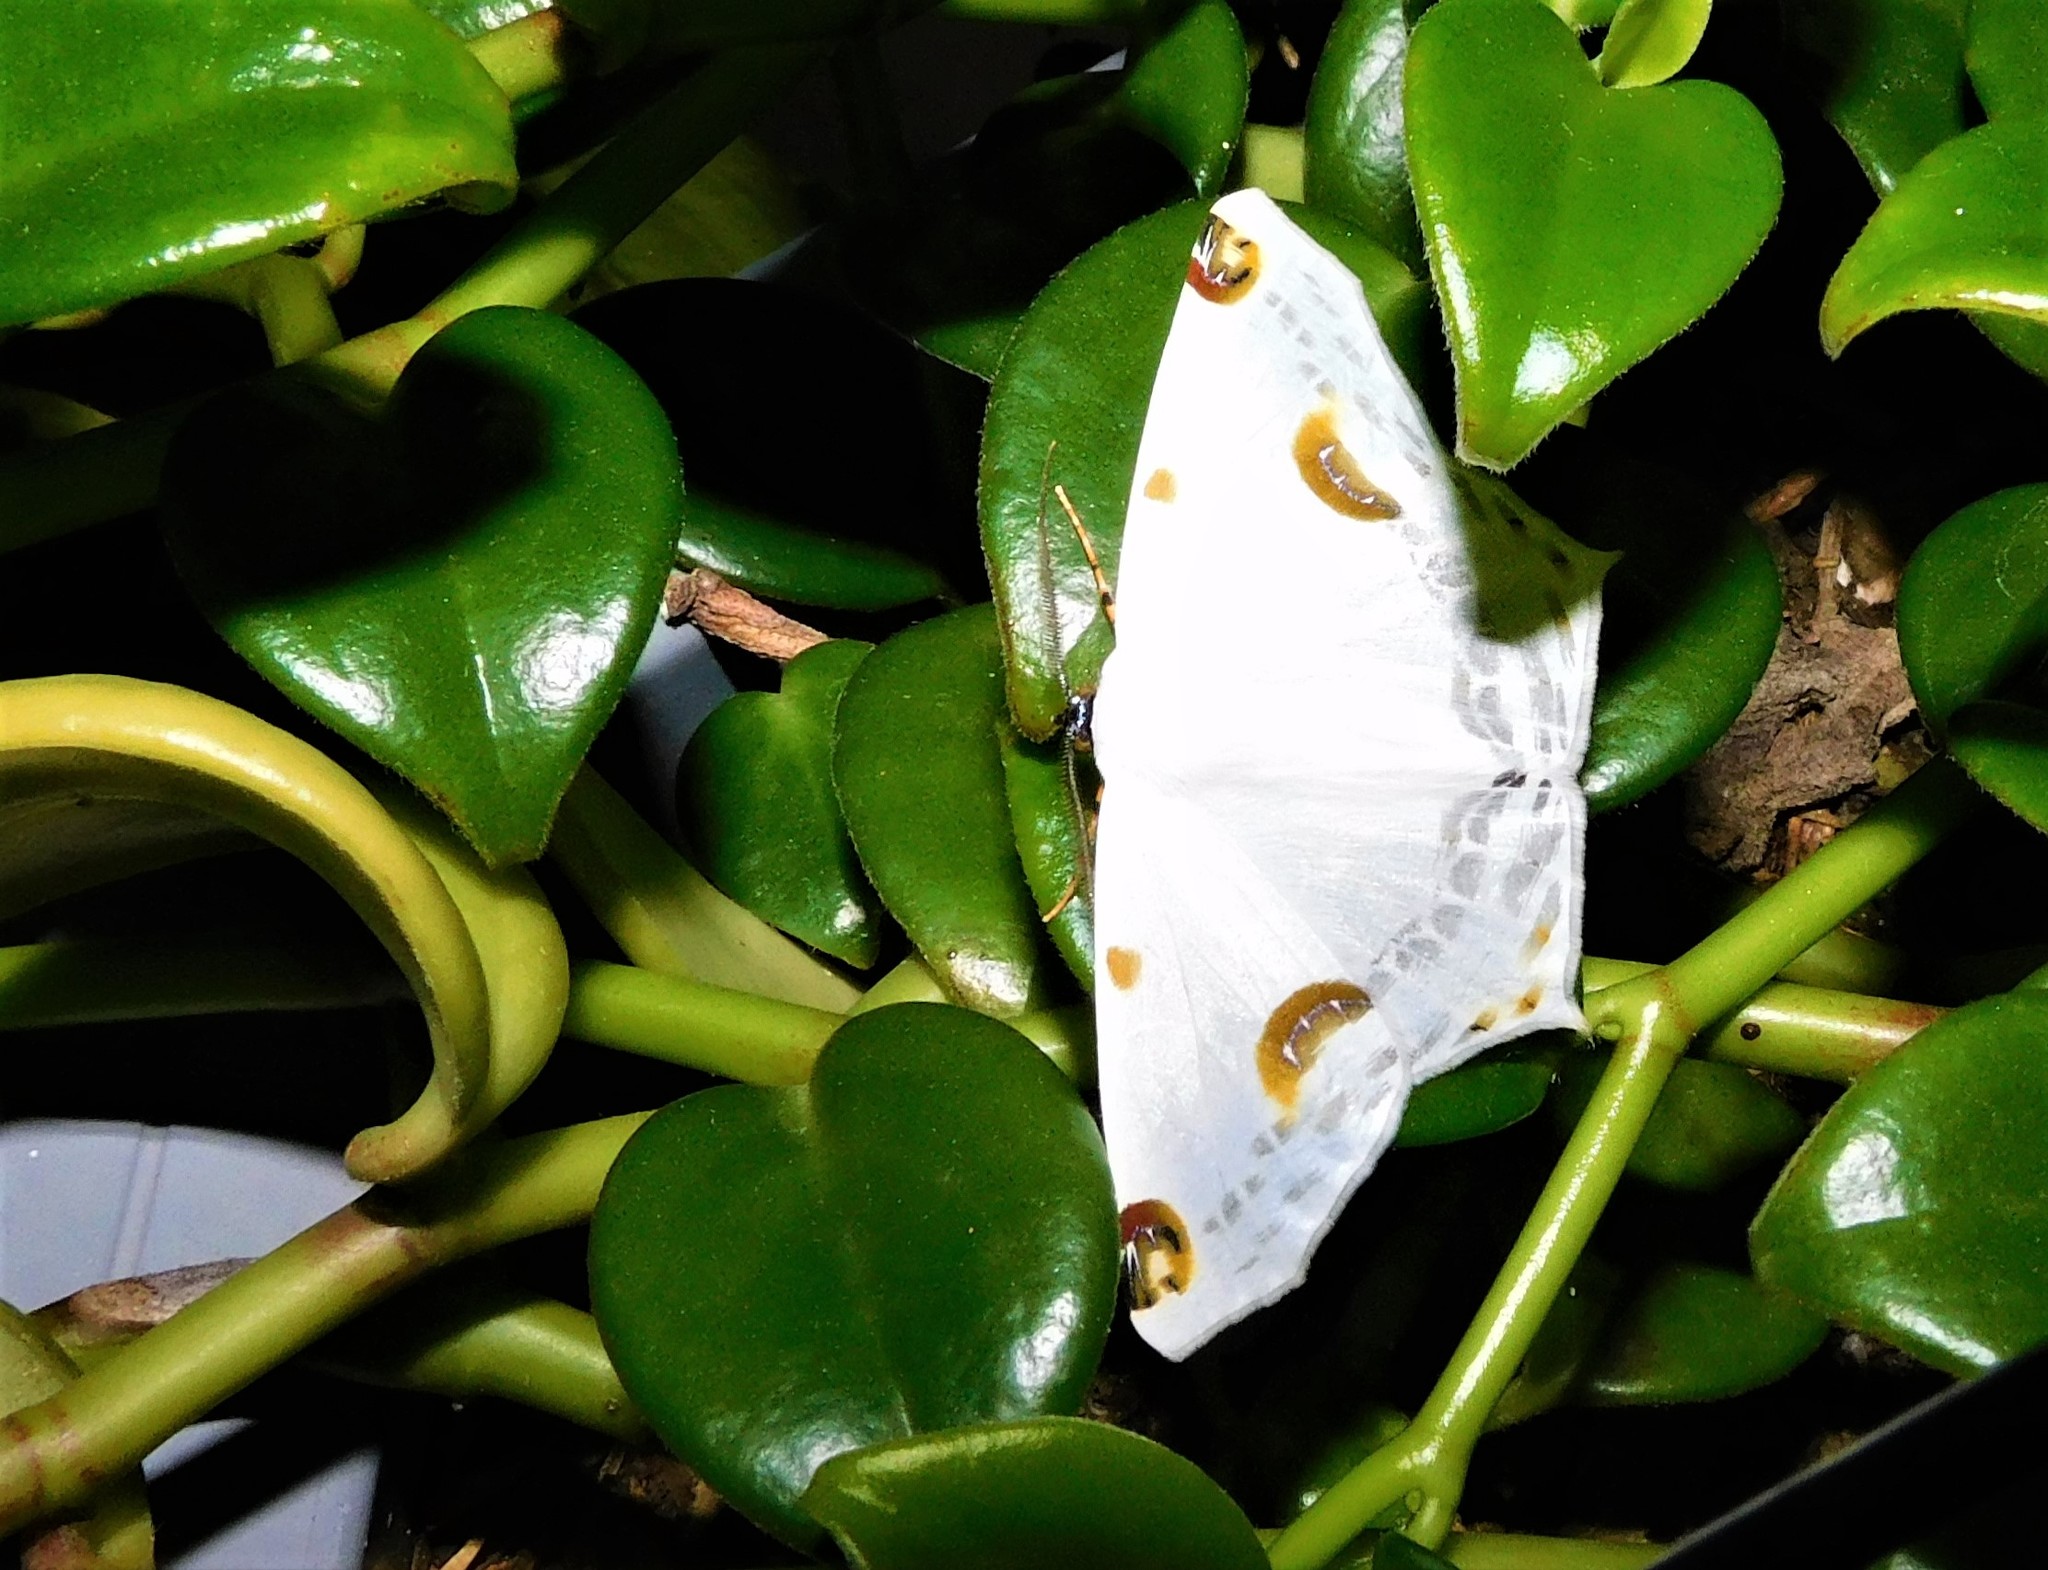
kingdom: Animalia
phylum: Arthropoda
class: Insecta
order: Lepidoptera
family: Geometridae
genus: Sericoptera
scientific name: Sericoptera mahometaria
